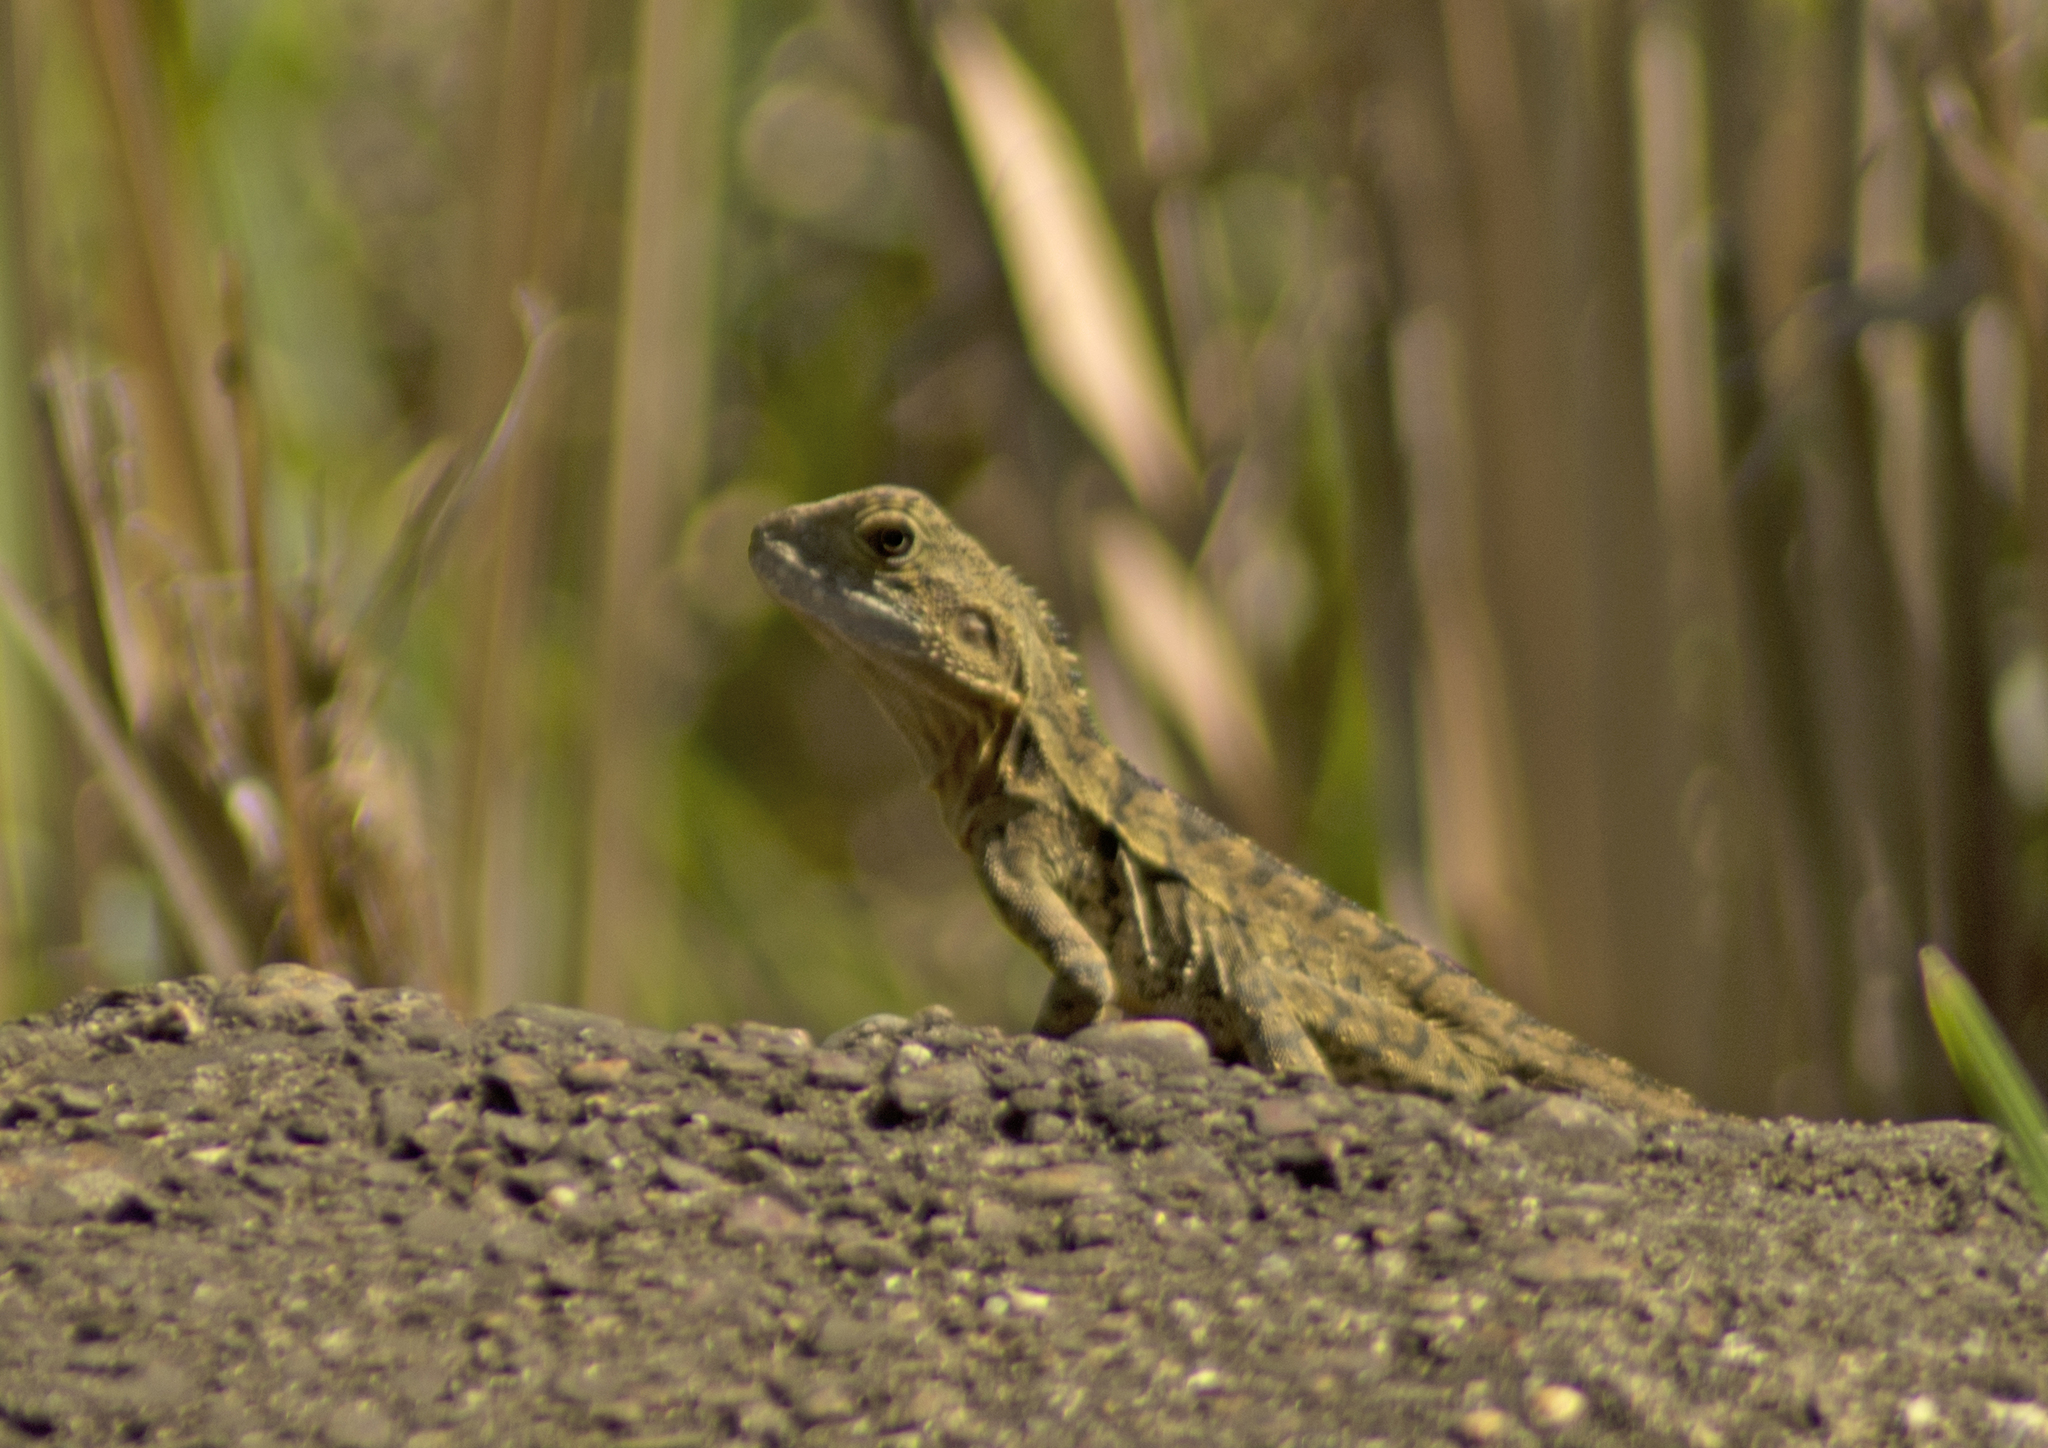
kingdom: Animalia
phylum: Chordata
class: Squamata
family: Agamidae
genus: Intellagama
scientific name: Intellagama lesueurii
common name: Eastern water dragon
